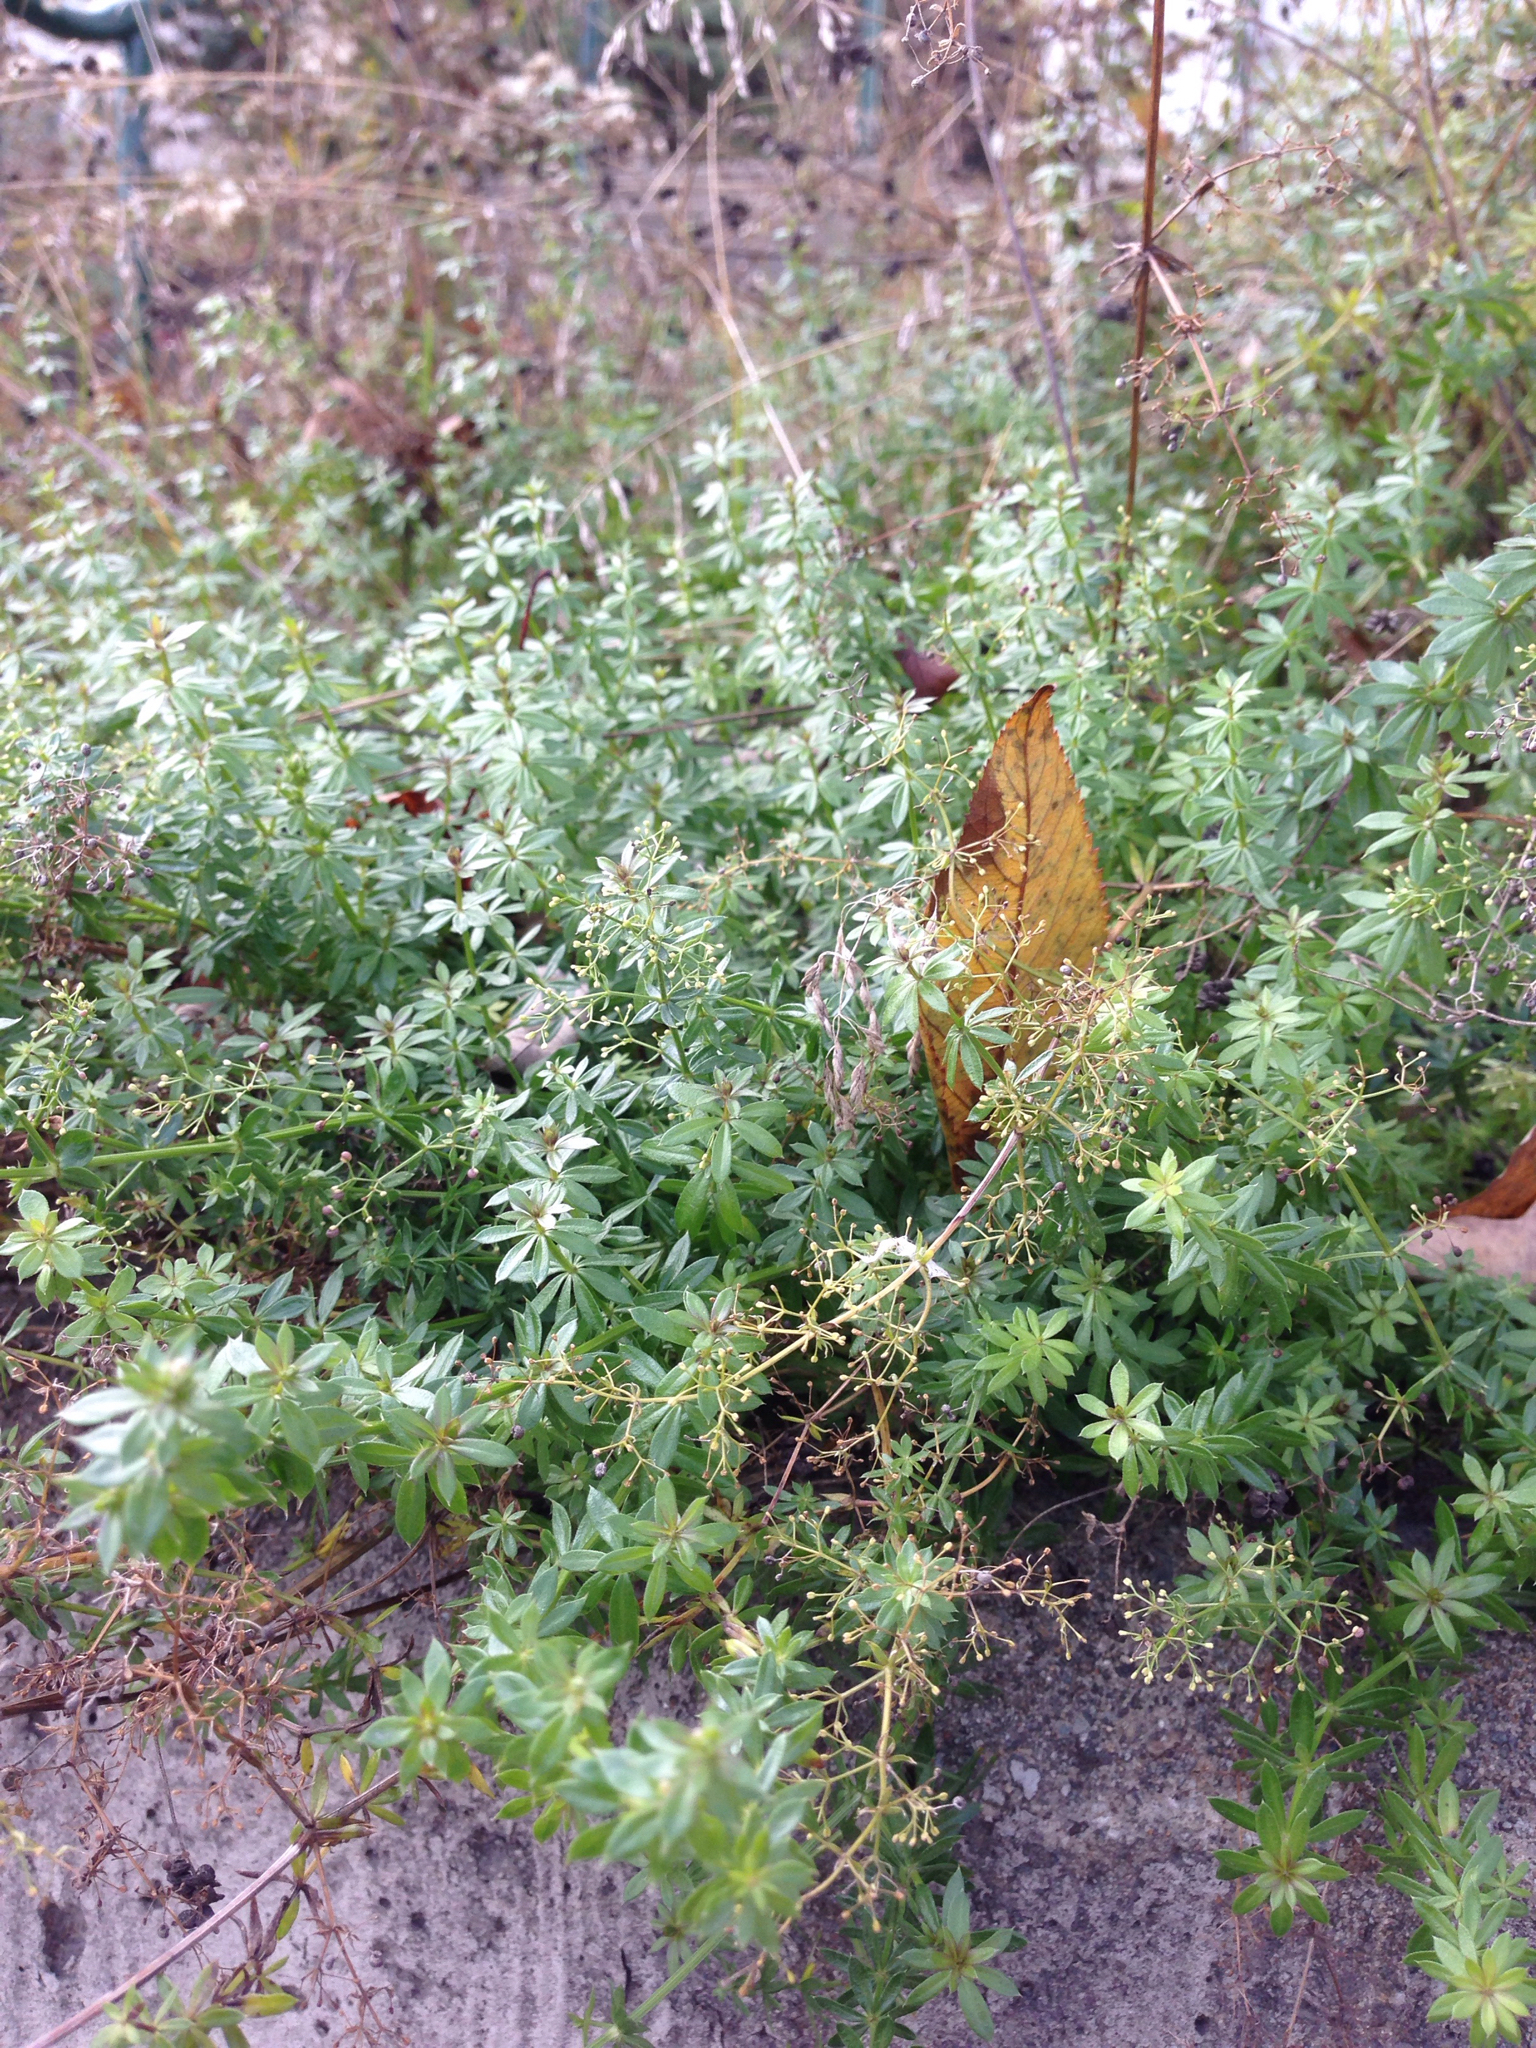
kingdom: Plantae
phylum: Tracheophyta
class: Magnoliopsida
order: Gentianales
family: Rubiaceae
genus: Galium
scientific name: Galium mollugo
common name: Hedge bedstraw
